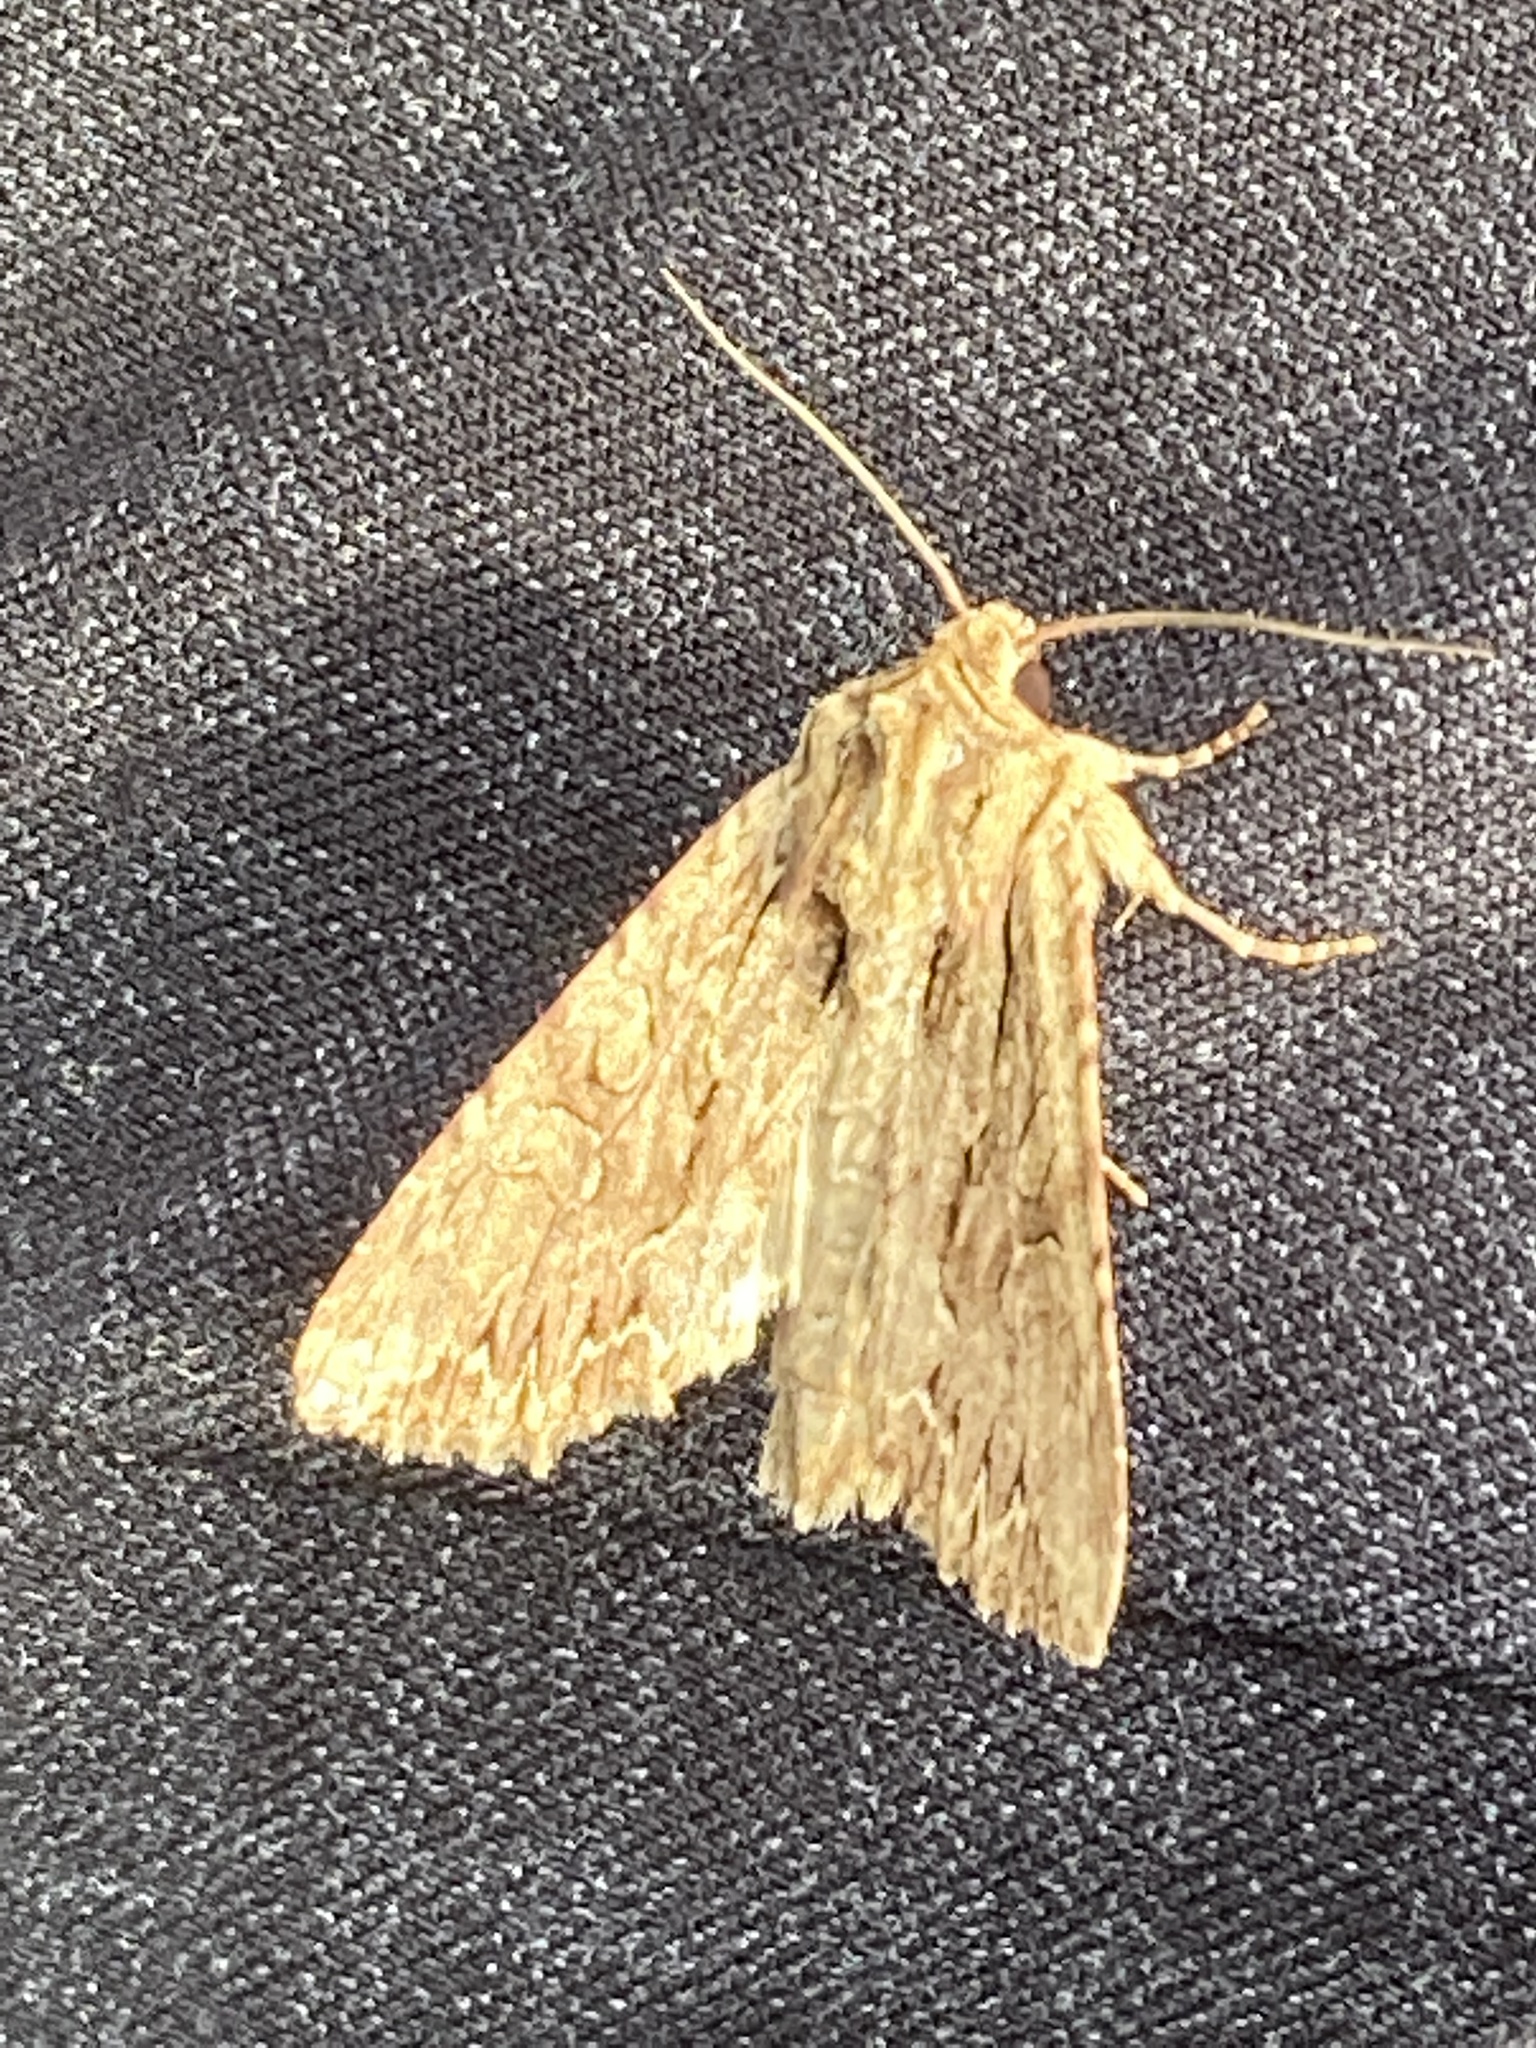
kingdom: Animalia
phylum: Arthropoda
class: Insecta
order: Lepidoptera
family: Noctuidae
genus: Apamea
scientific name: Apamea monoglypha
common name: Dark arches
